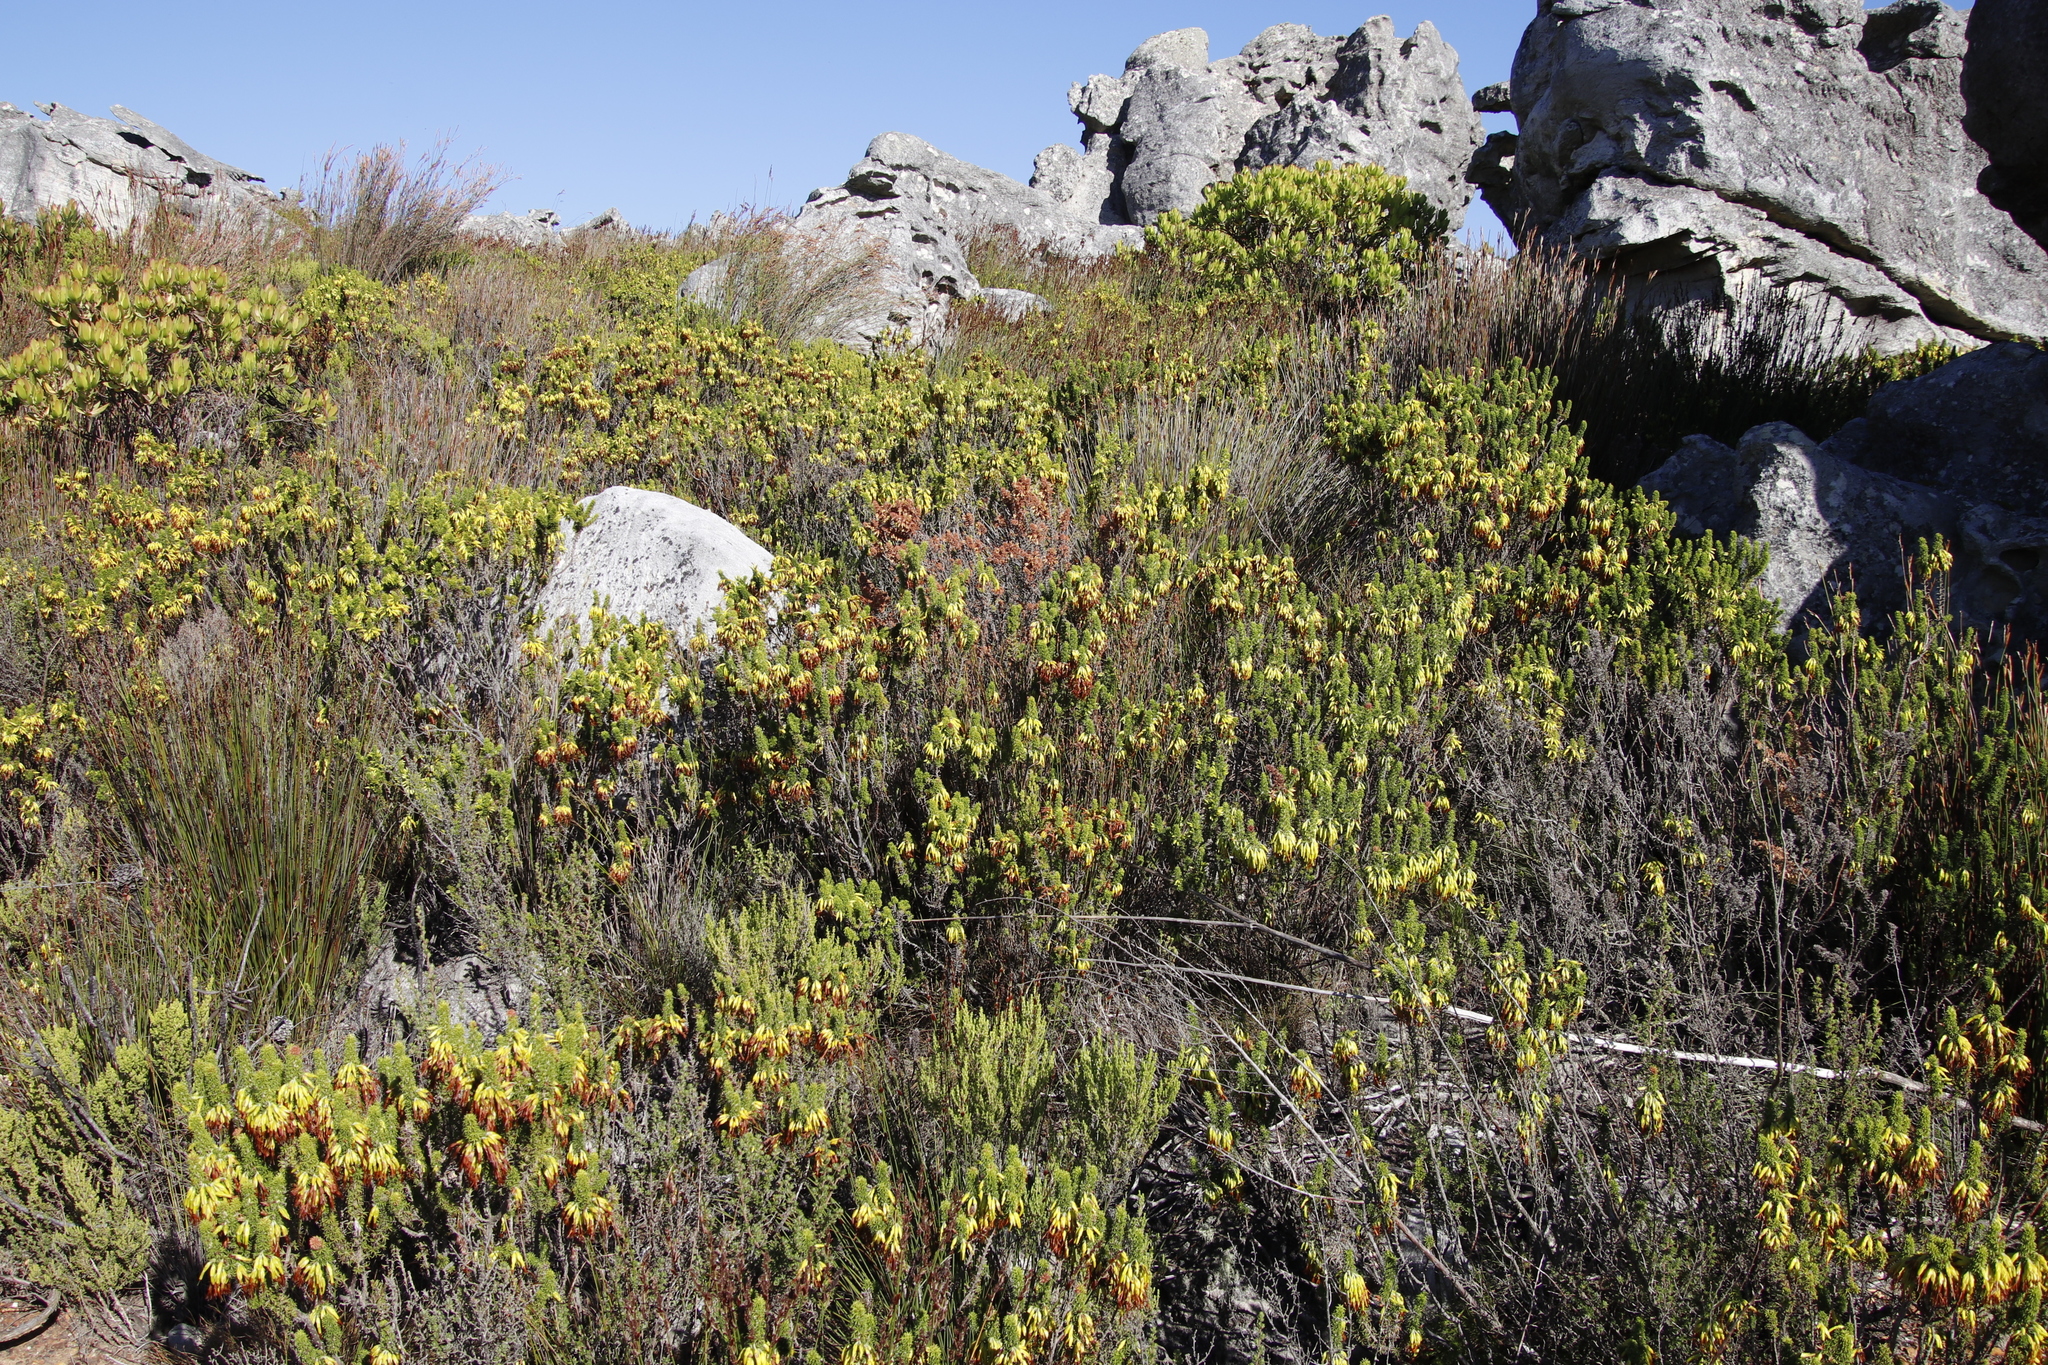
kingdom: Plantae
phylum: Tracheophyta
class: Magnoliopsida
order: Ericales
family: Ericaceae
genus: Erica
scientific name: Erica coccinea
